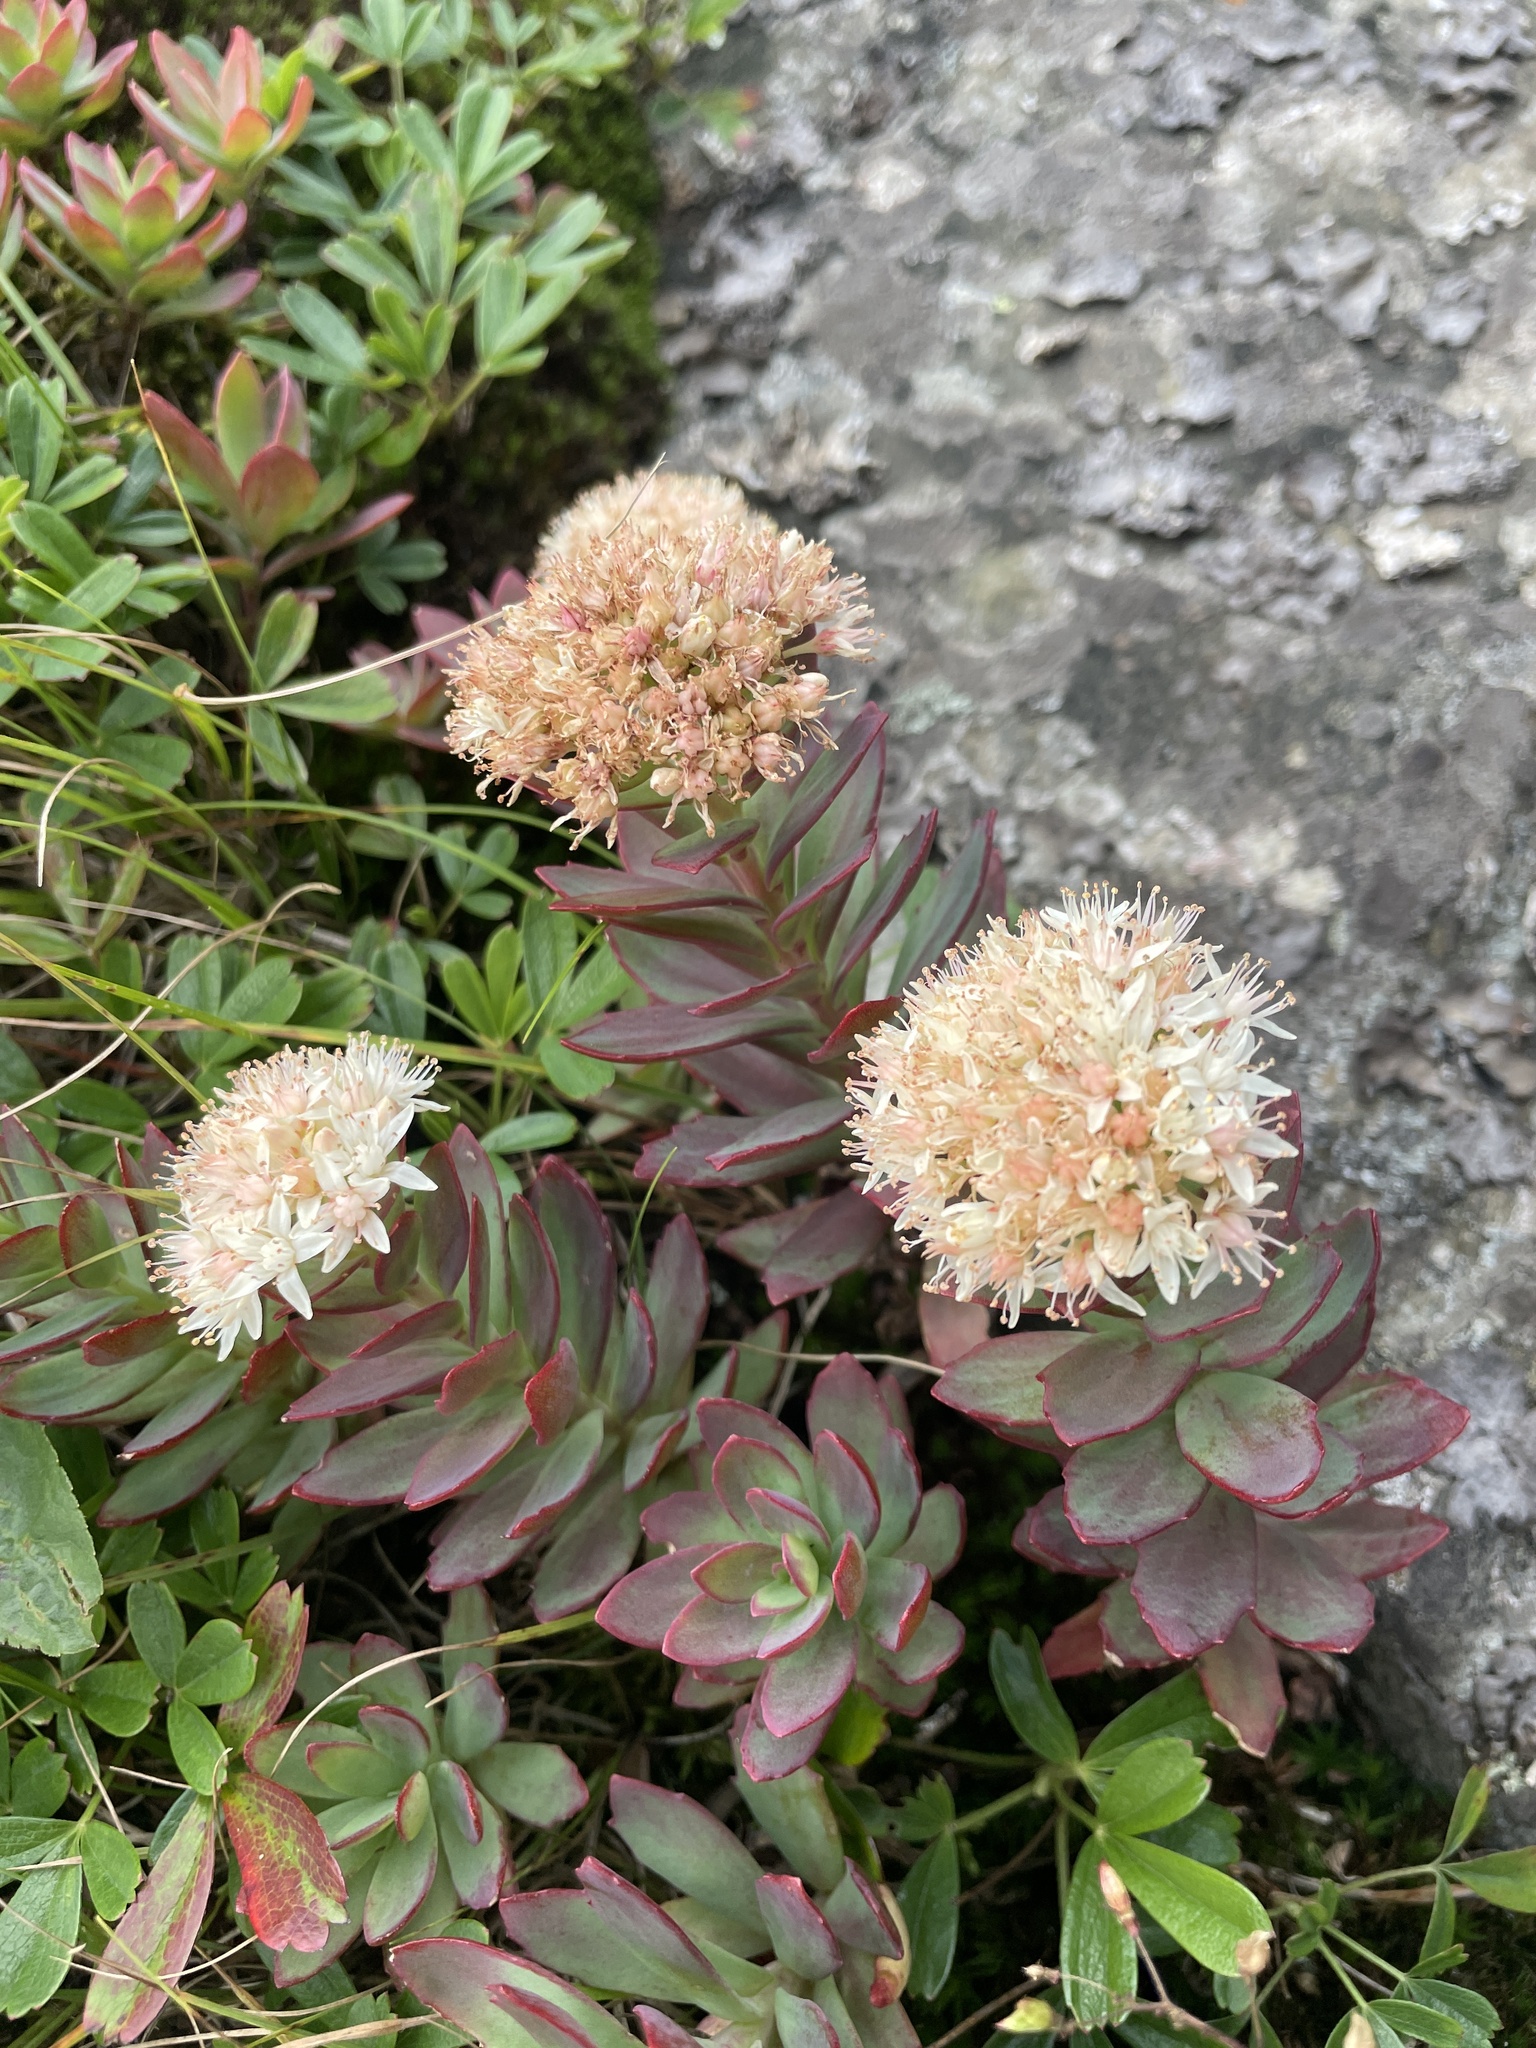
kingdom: Plantae
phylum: Tracheophyta
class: Magnoliopsida
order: Saxifragales
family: Crassulaceae
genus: Hylotelephium
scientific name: Hylotelephium telephioides
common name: Allegheny stonecrop
